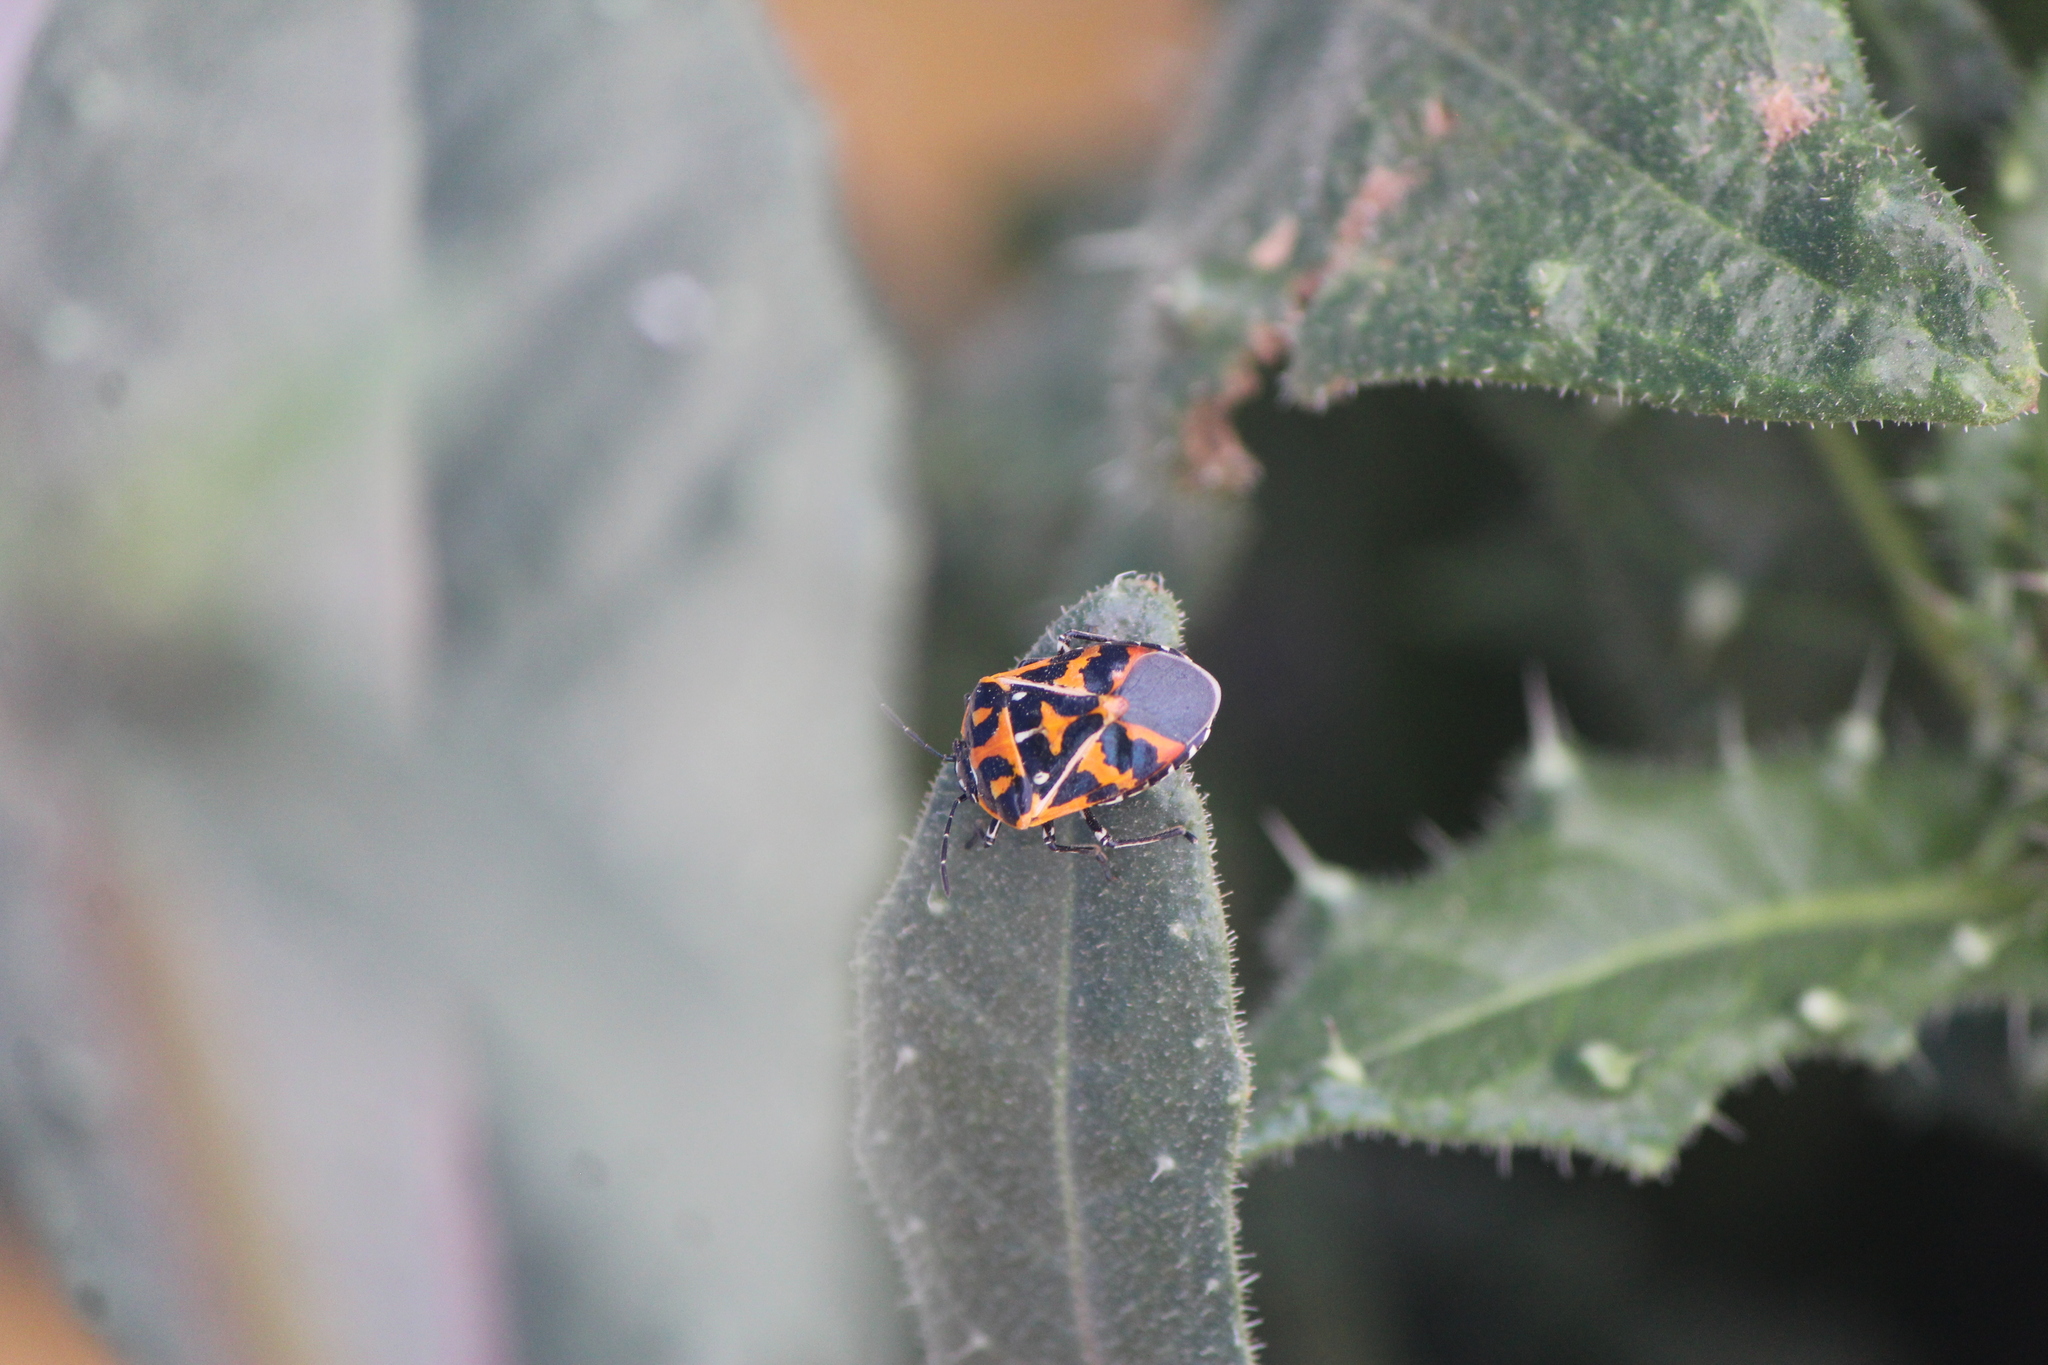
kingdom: Animalia
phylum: Arthropoda
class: Insecta
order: Hemiptera
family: Pentatomidae
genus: Murgantia
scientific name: Murgantia histrionica
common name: Harlequin bug
